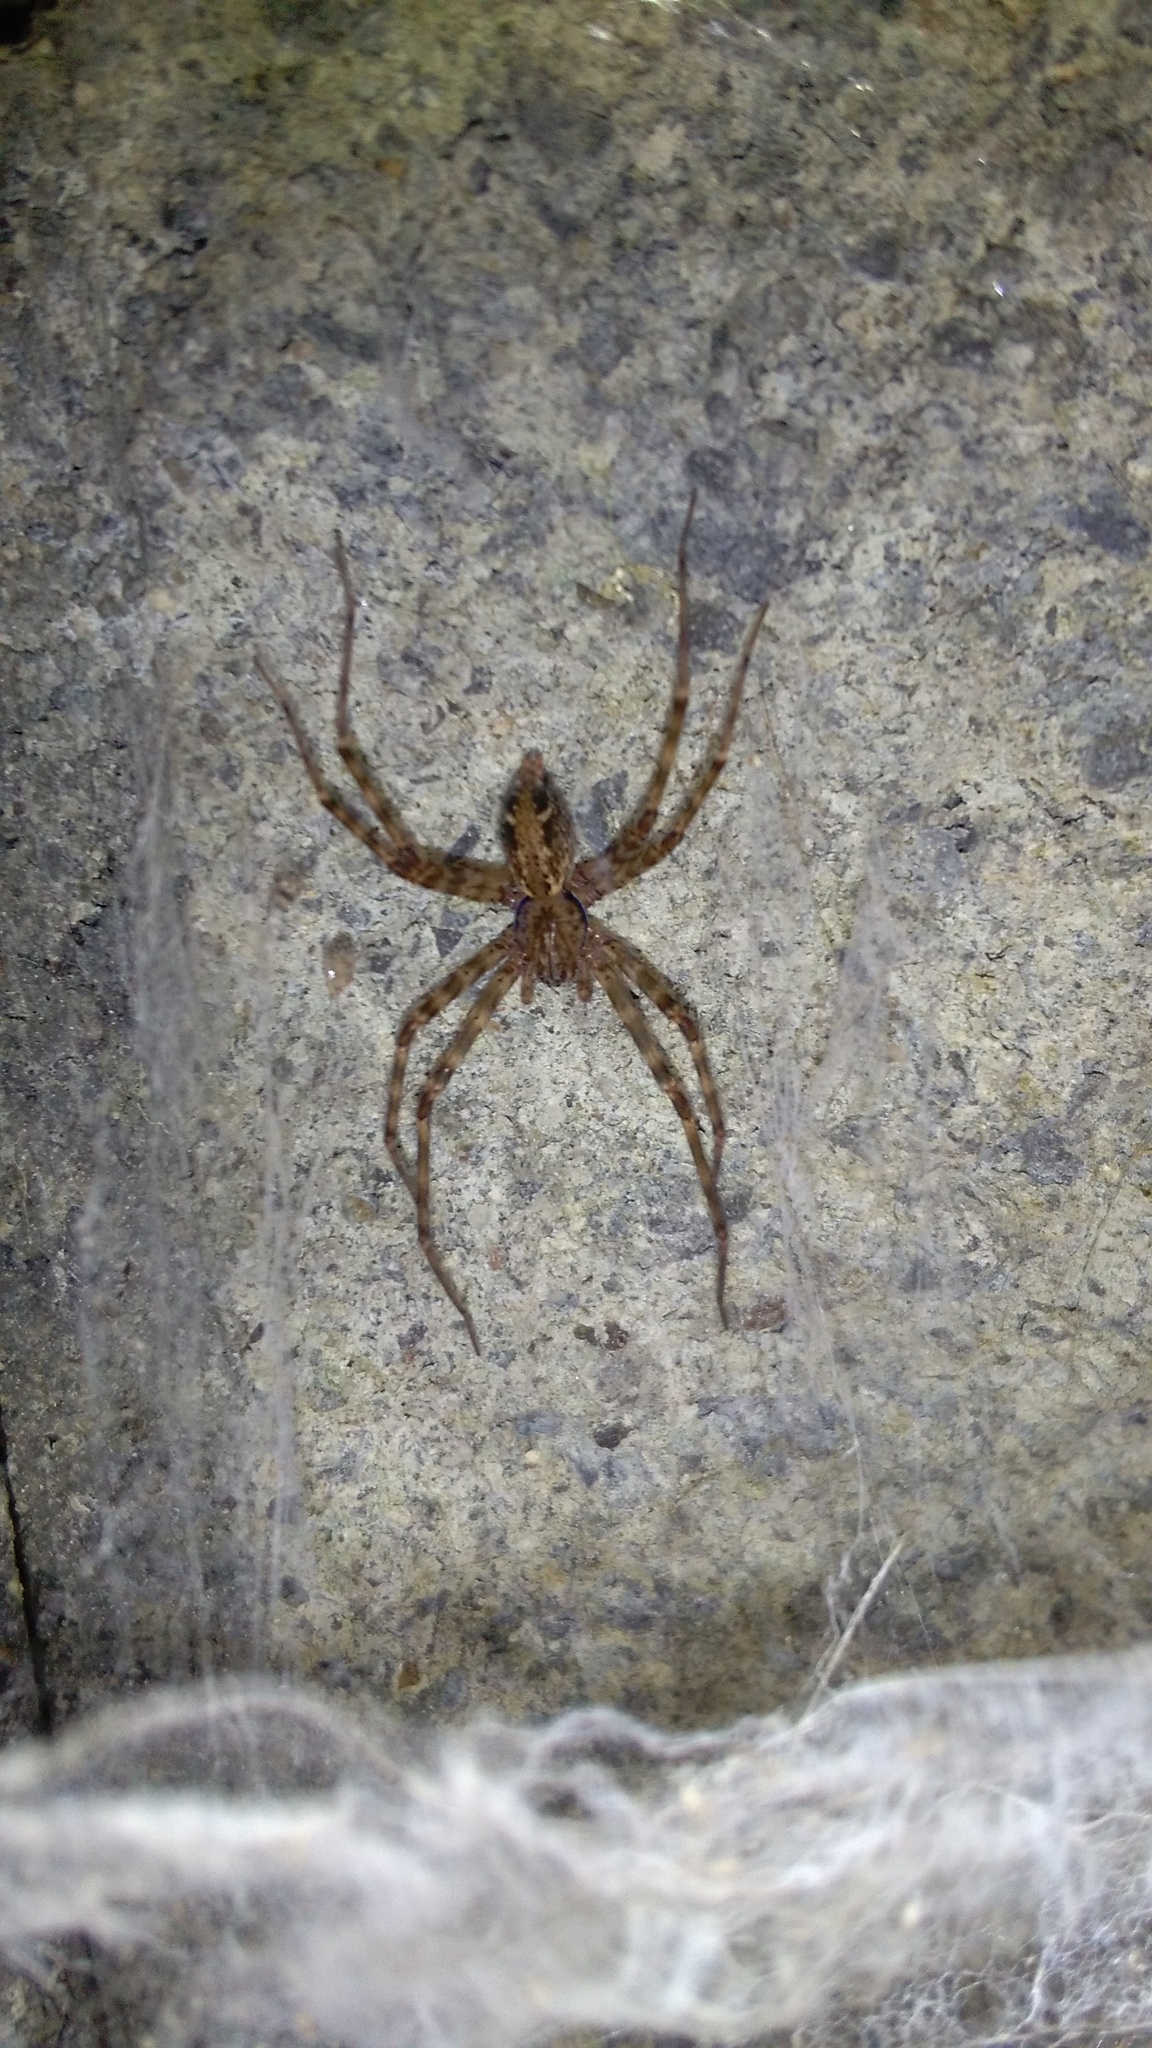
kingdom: Animalia
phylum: Arthropoda
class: Arachnida
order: Araneae
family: Stiphidiidae
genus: Stiphidion
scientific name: Stiphidion facetum
